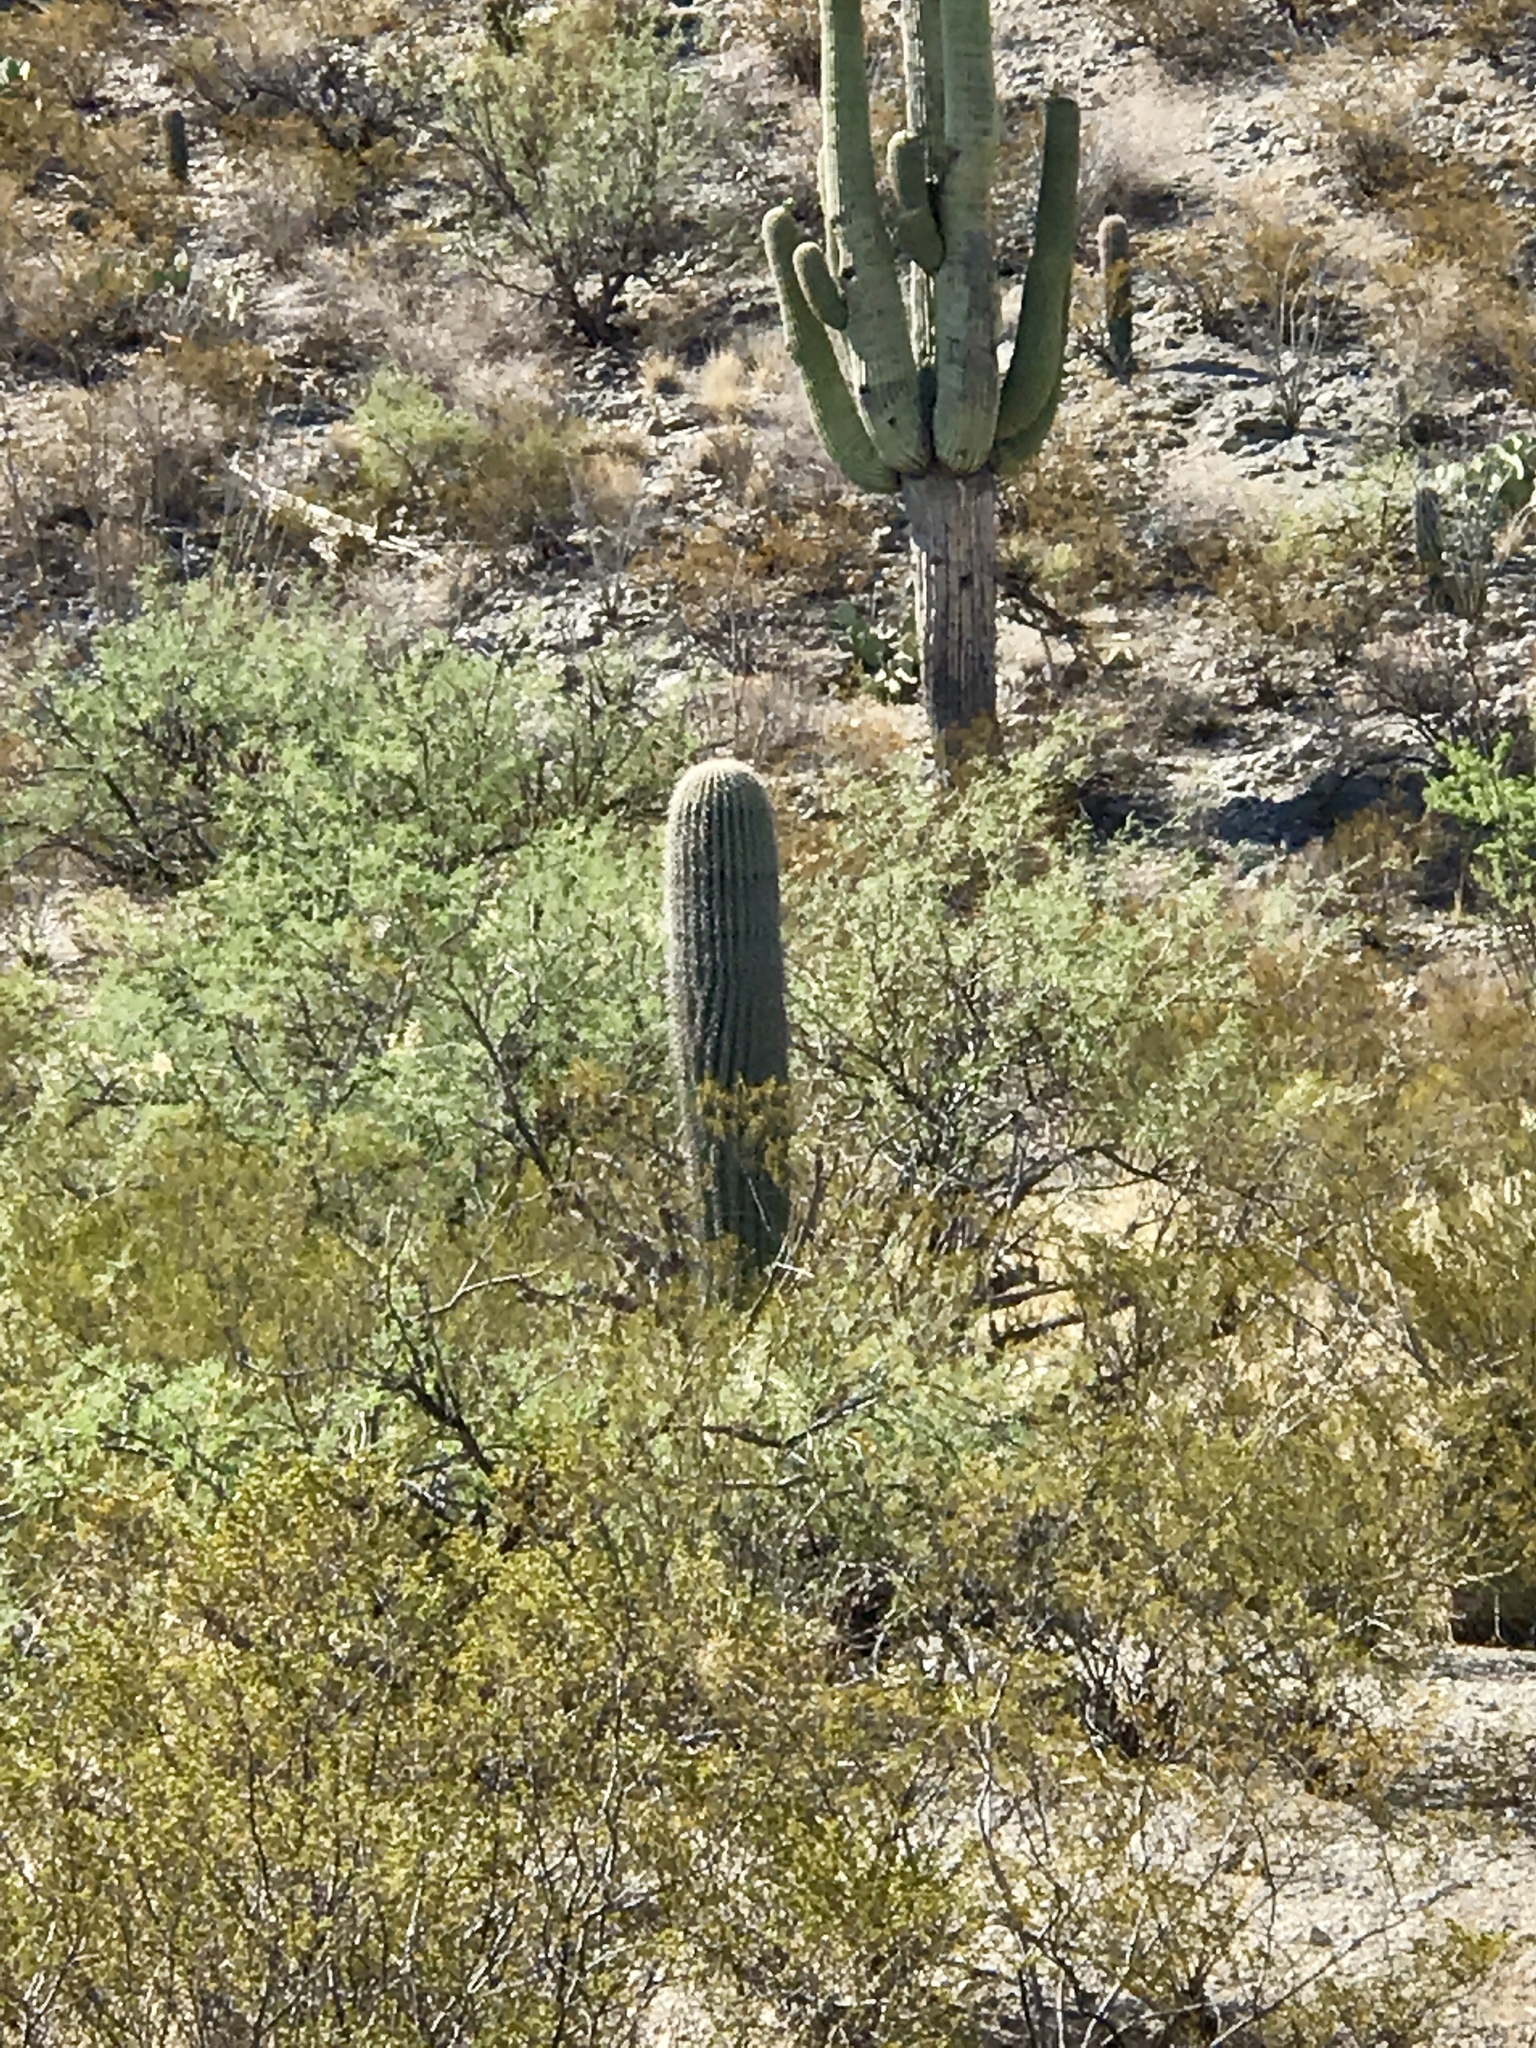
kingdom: Plantae
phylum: Tracheophyta
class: Magnoliopsida
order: Caryophyllales
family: Cactaceae
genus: Carnegiea
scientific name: Carnegiea gigantea
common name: Saguaro
